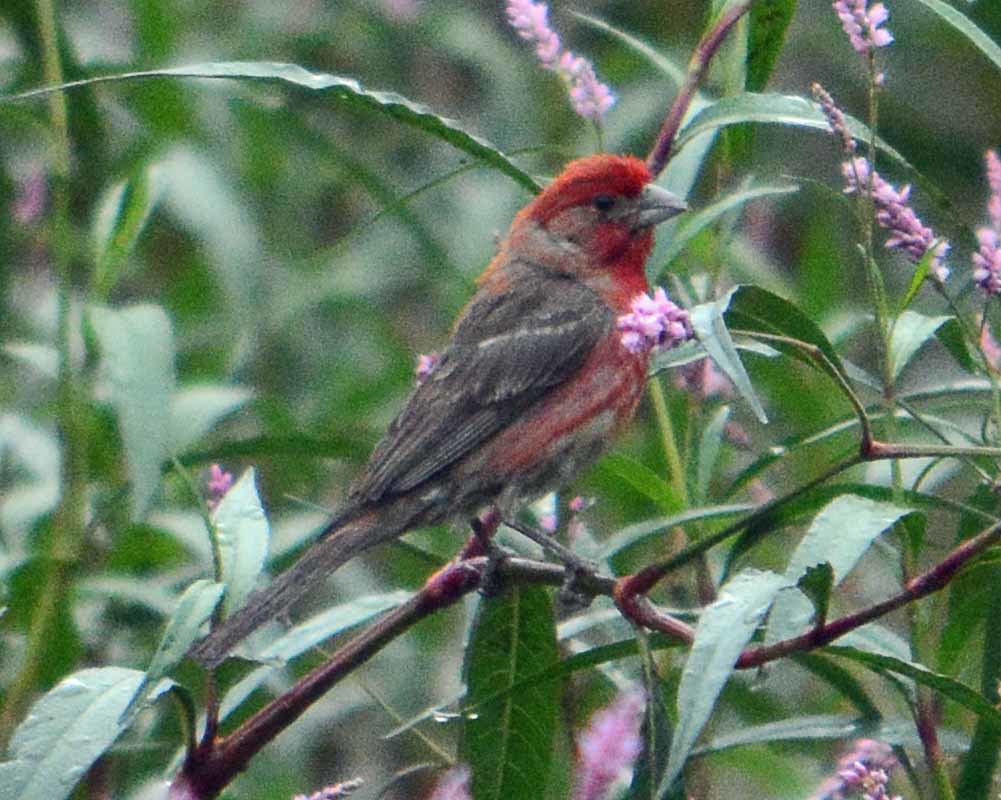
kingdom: Animalia
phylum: Chordata
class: Aves
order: Passeriformes
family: Fringillidae
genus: Haemorhous
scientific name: Haemorhous mexicanus
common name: House finch
